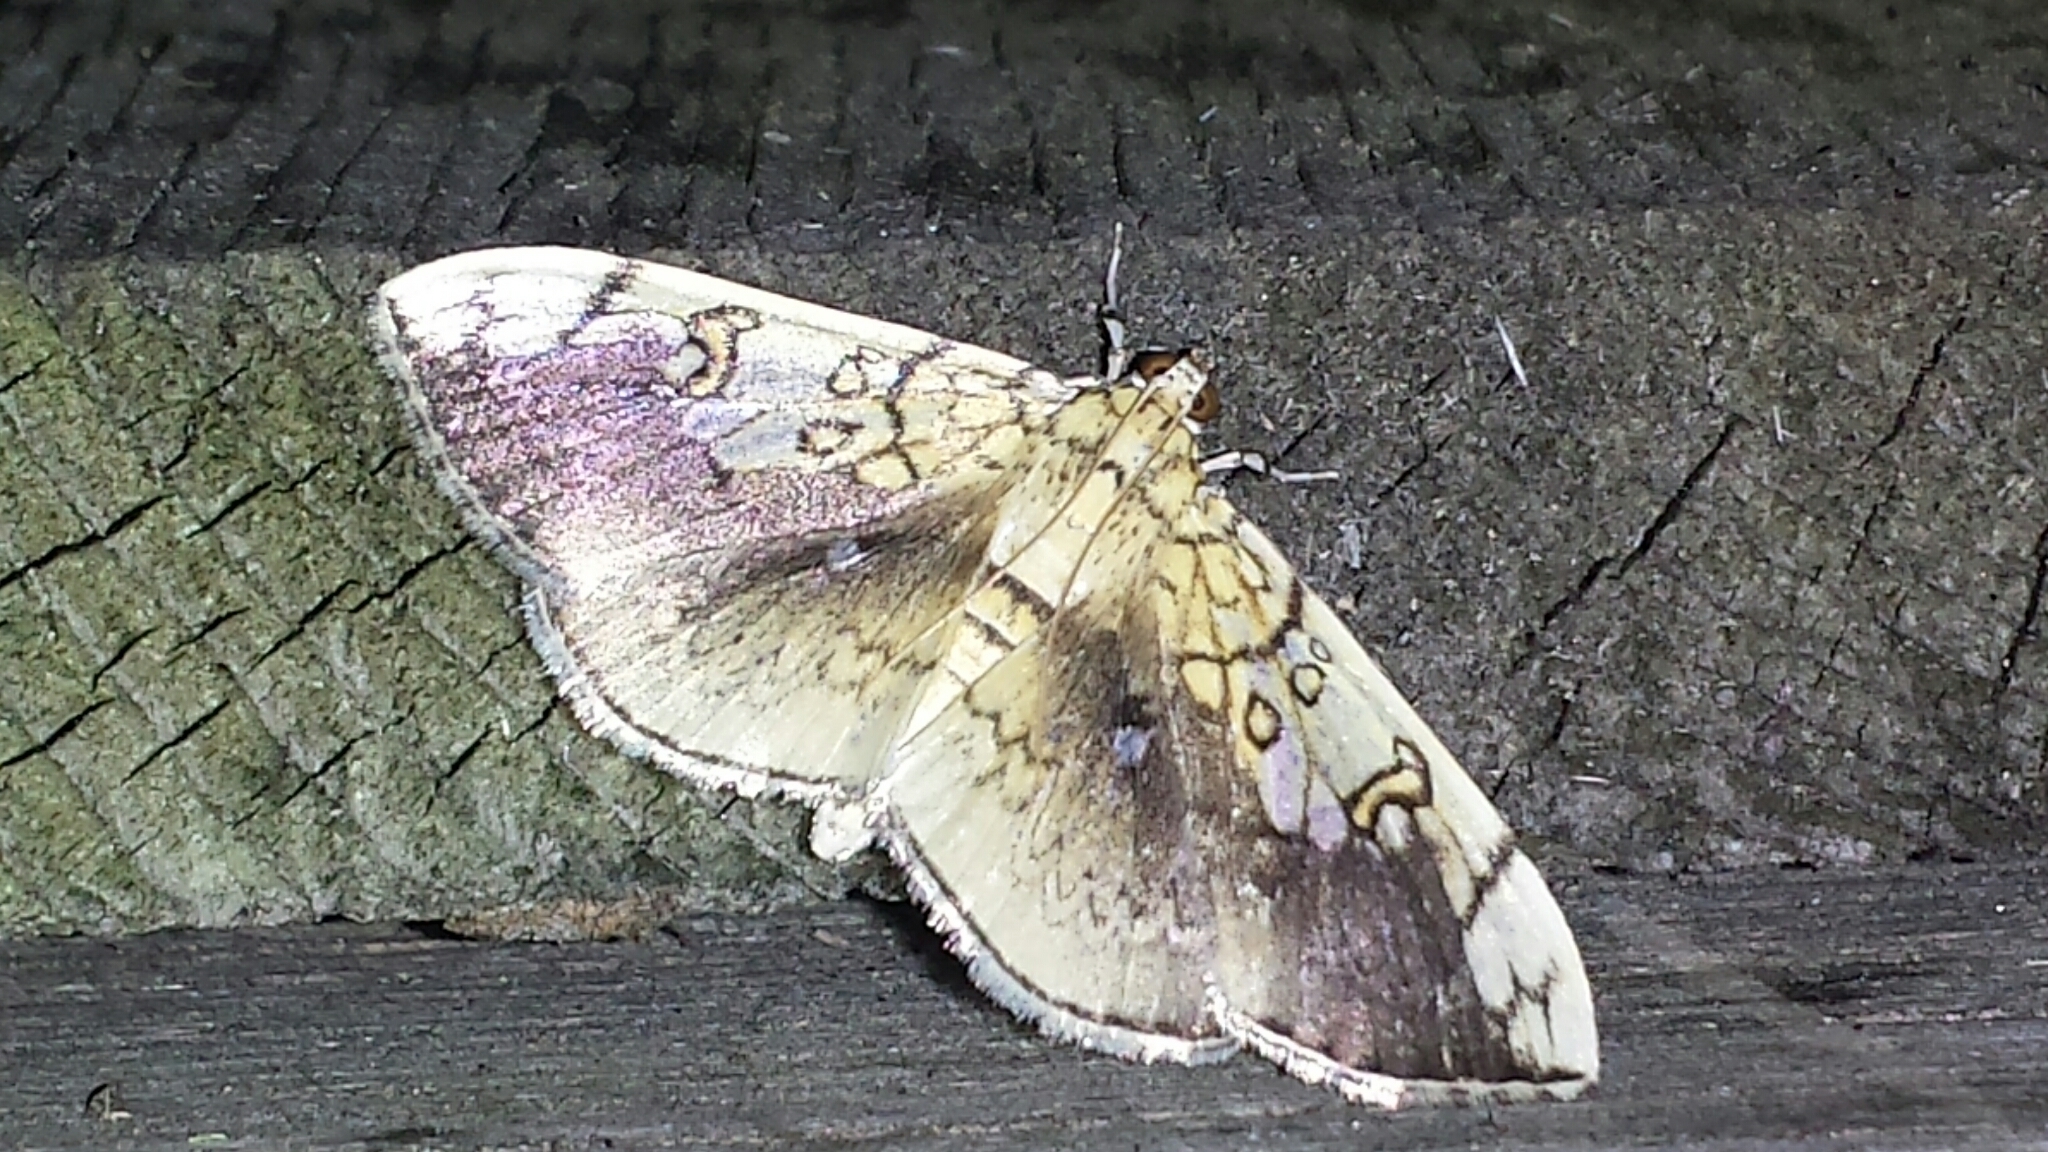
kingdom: Animalia
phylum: Arthropoda
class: Insecta
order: Lepidoptera
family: Crambidae
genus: Pantographa
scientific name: Pantographa limata
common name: Basswood leafroller moth
